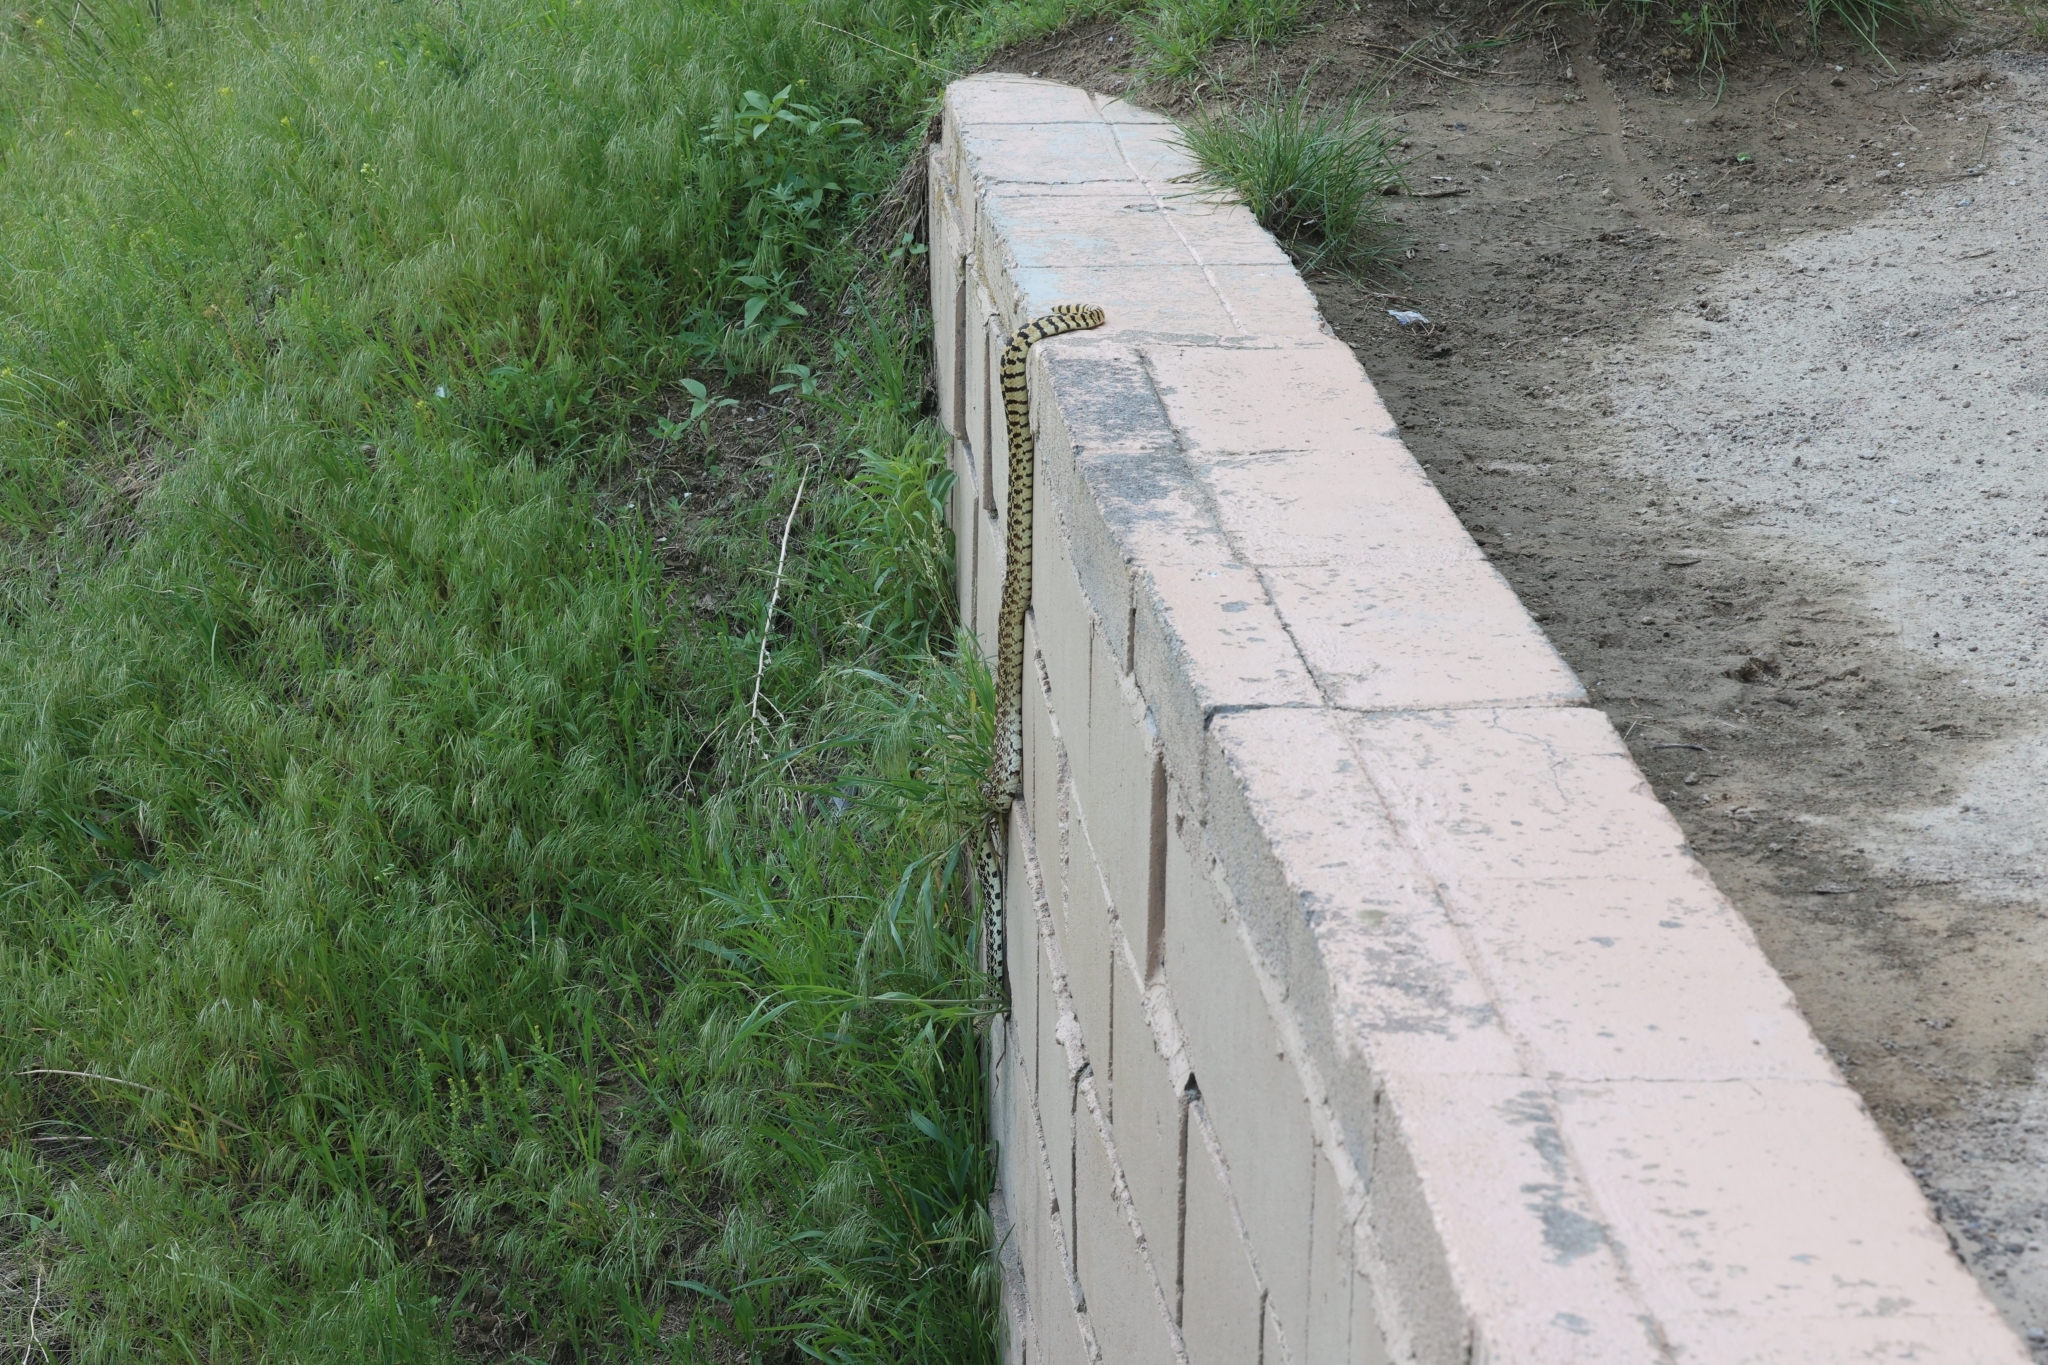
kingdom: Animalia
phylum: Chordata
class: Squamata
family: Colubridae
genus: Pituophis
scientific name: Pituophis catenifer
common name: Gopher snake
